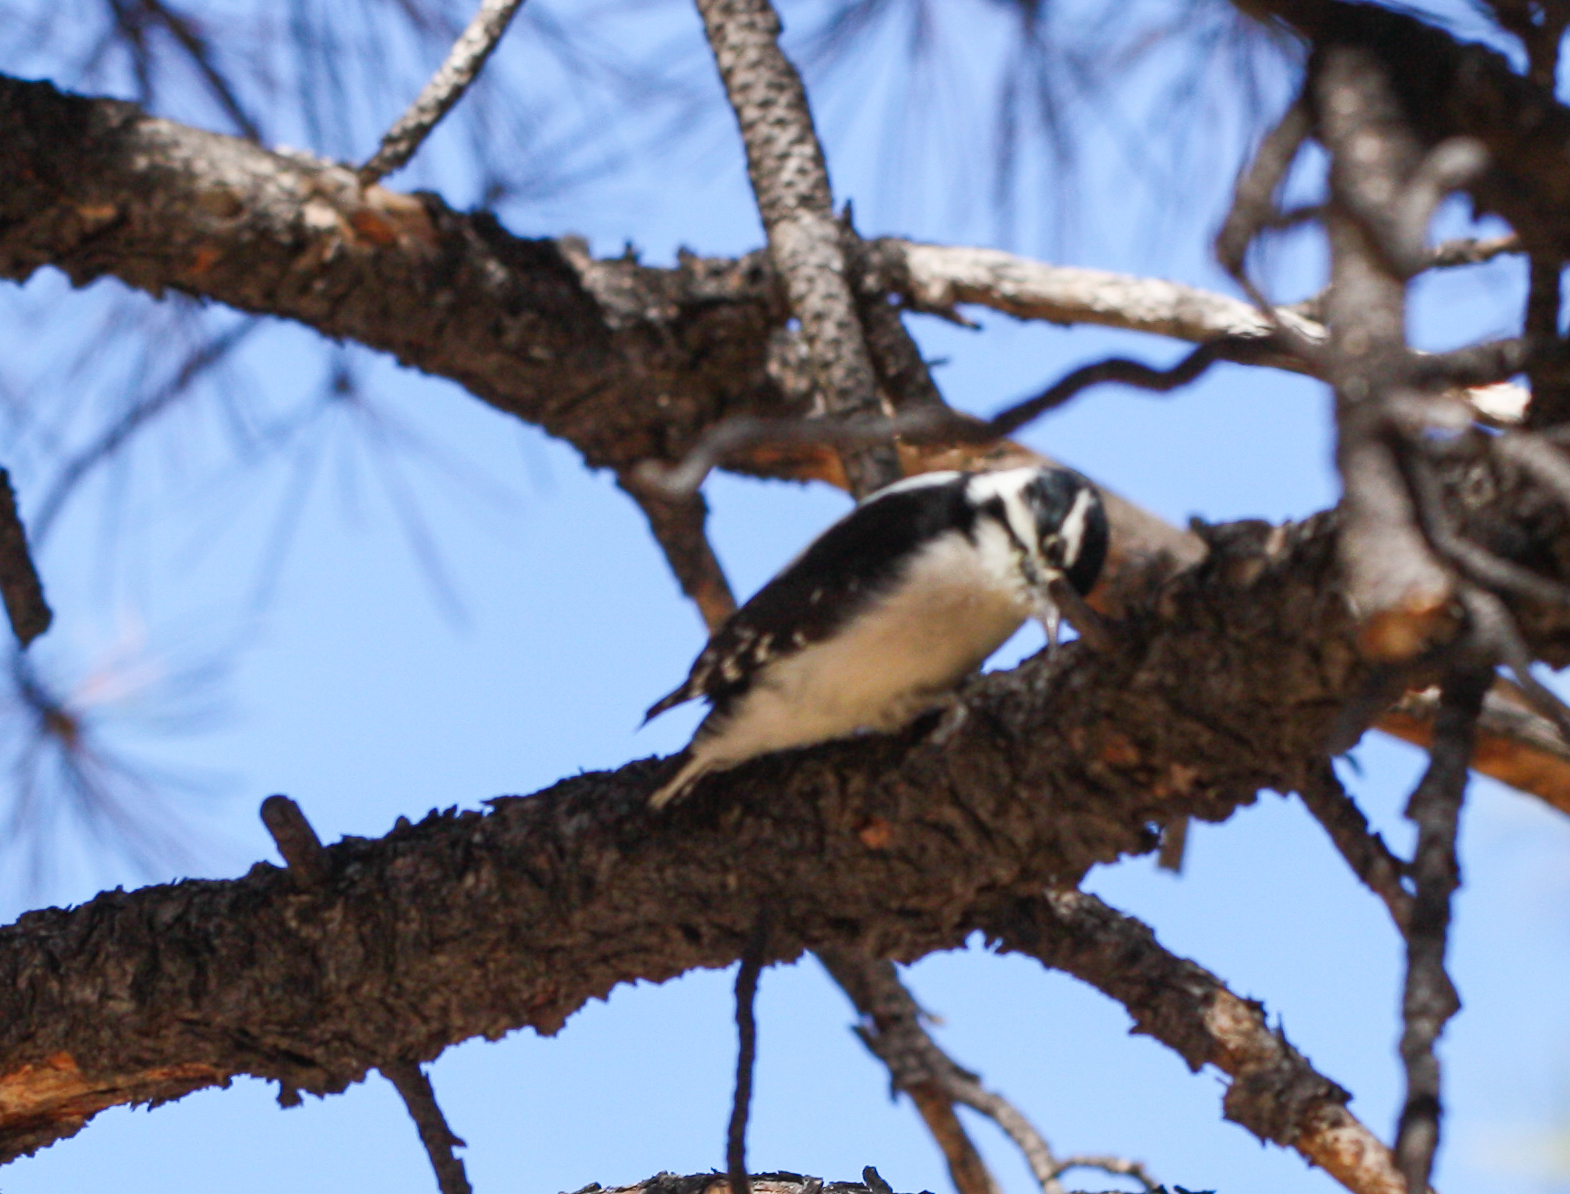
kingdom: Animalia
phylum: Chordata
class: Aves
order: Piciformes
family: Picidae
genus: Dryobates
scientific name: Dryobates pubescens
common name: Downy woodpecker
